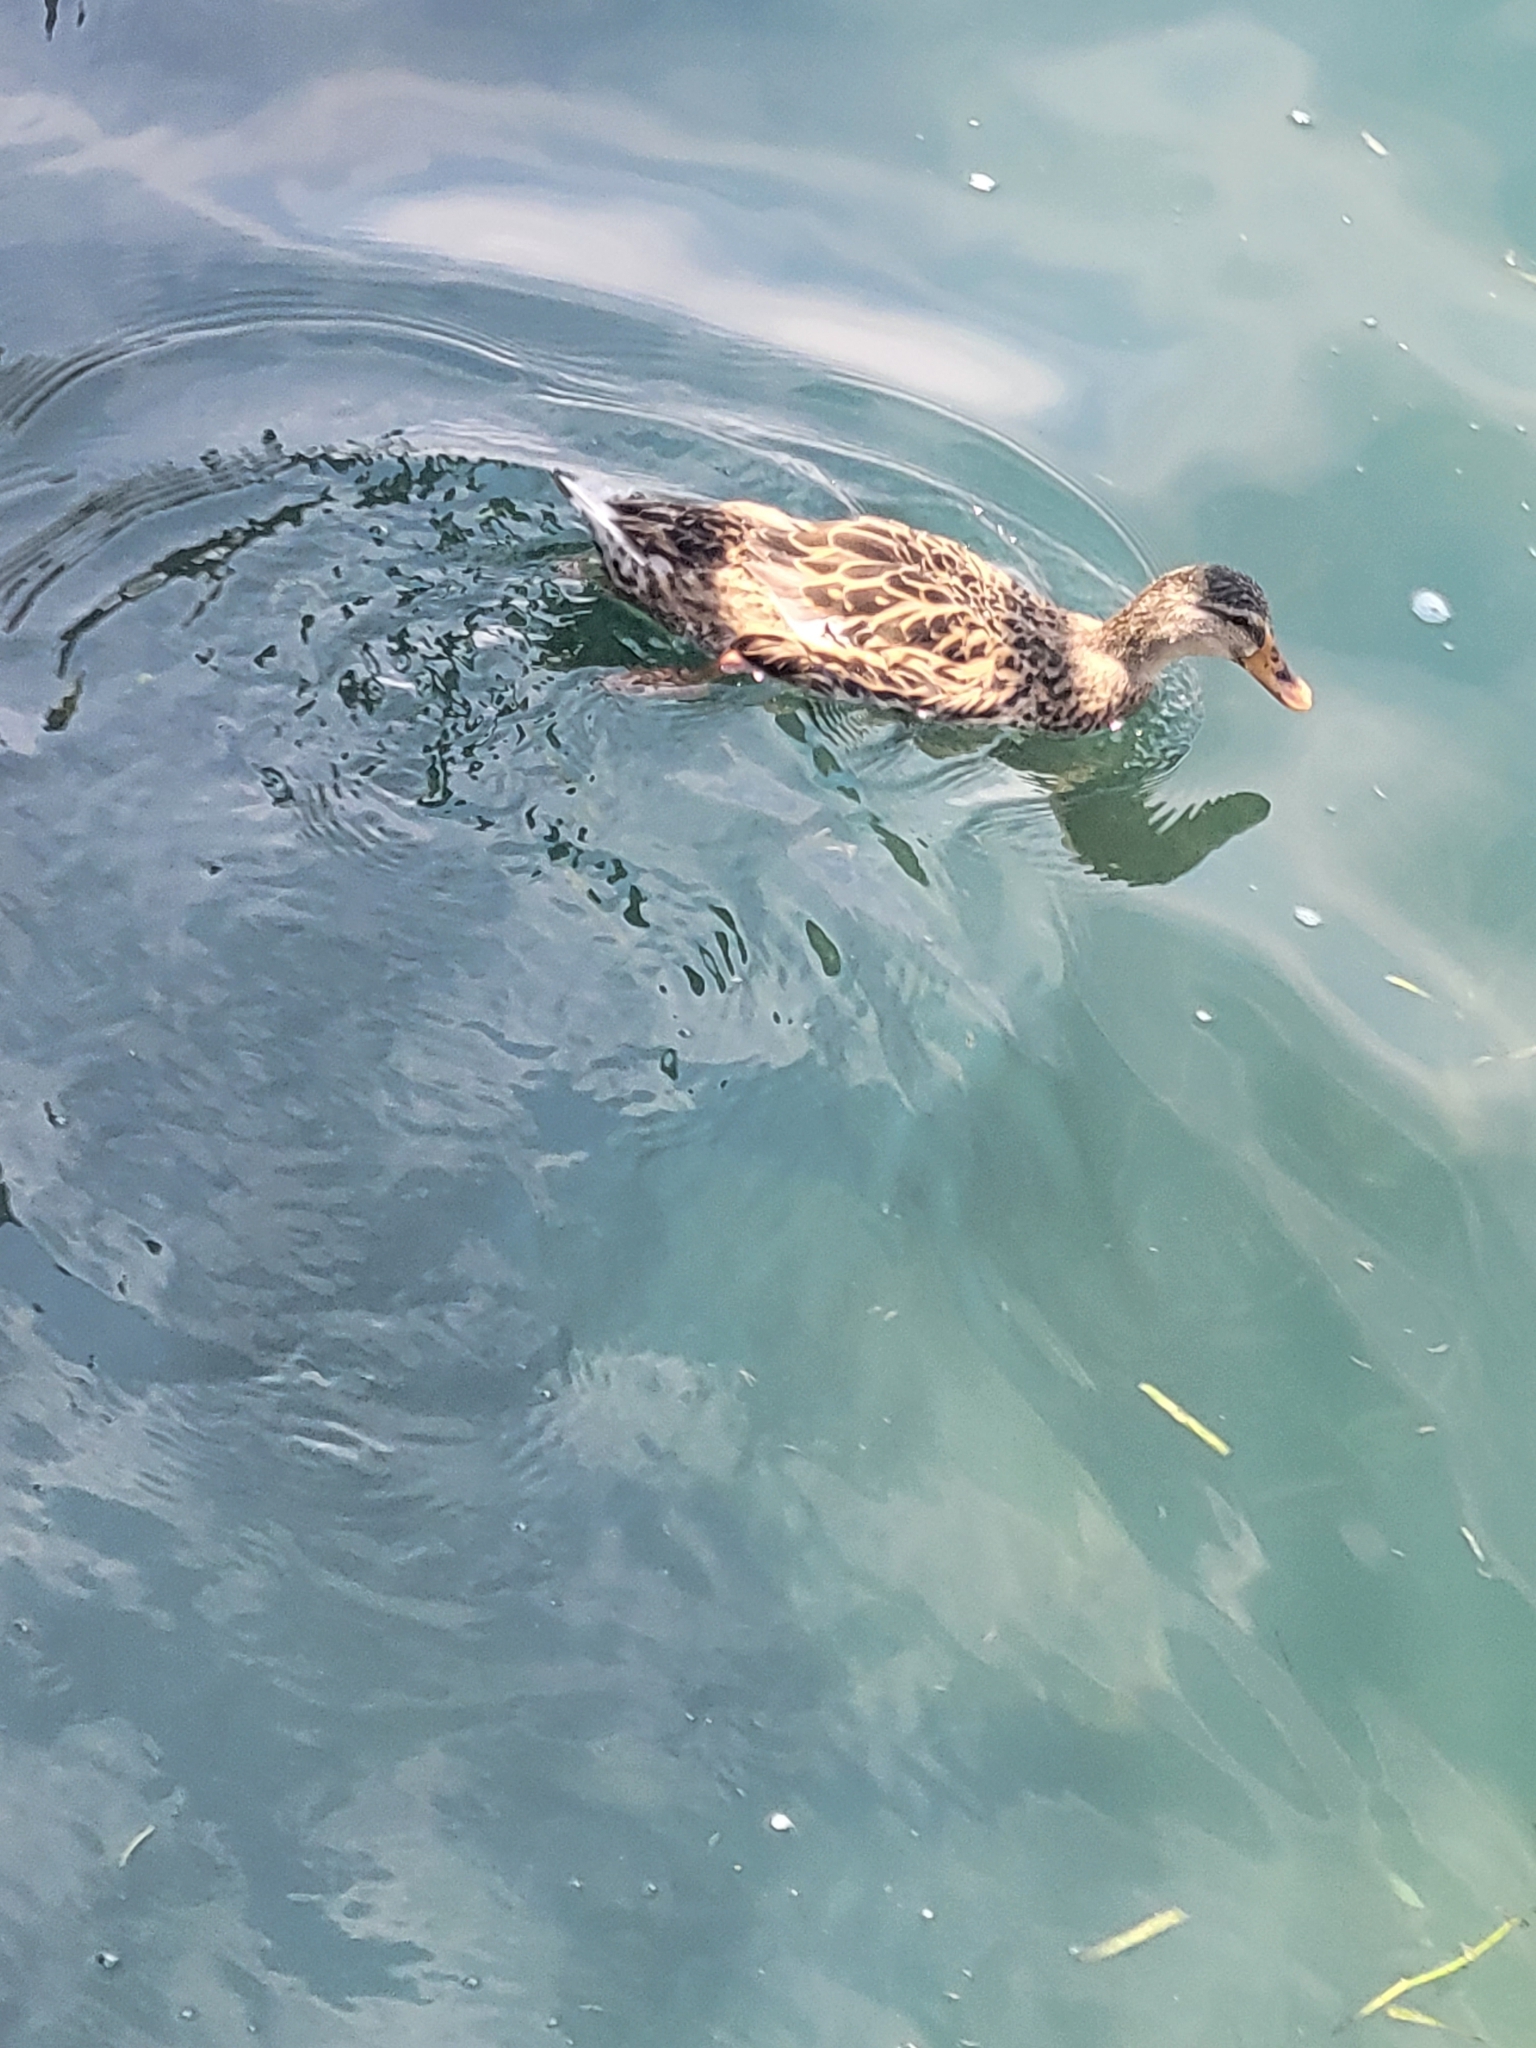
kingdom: Animalia
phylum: Chordata
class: Aves
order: Anseriformes
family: Anatidae
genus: Anas
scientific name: Anas platyrhynchos
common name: Mallard
